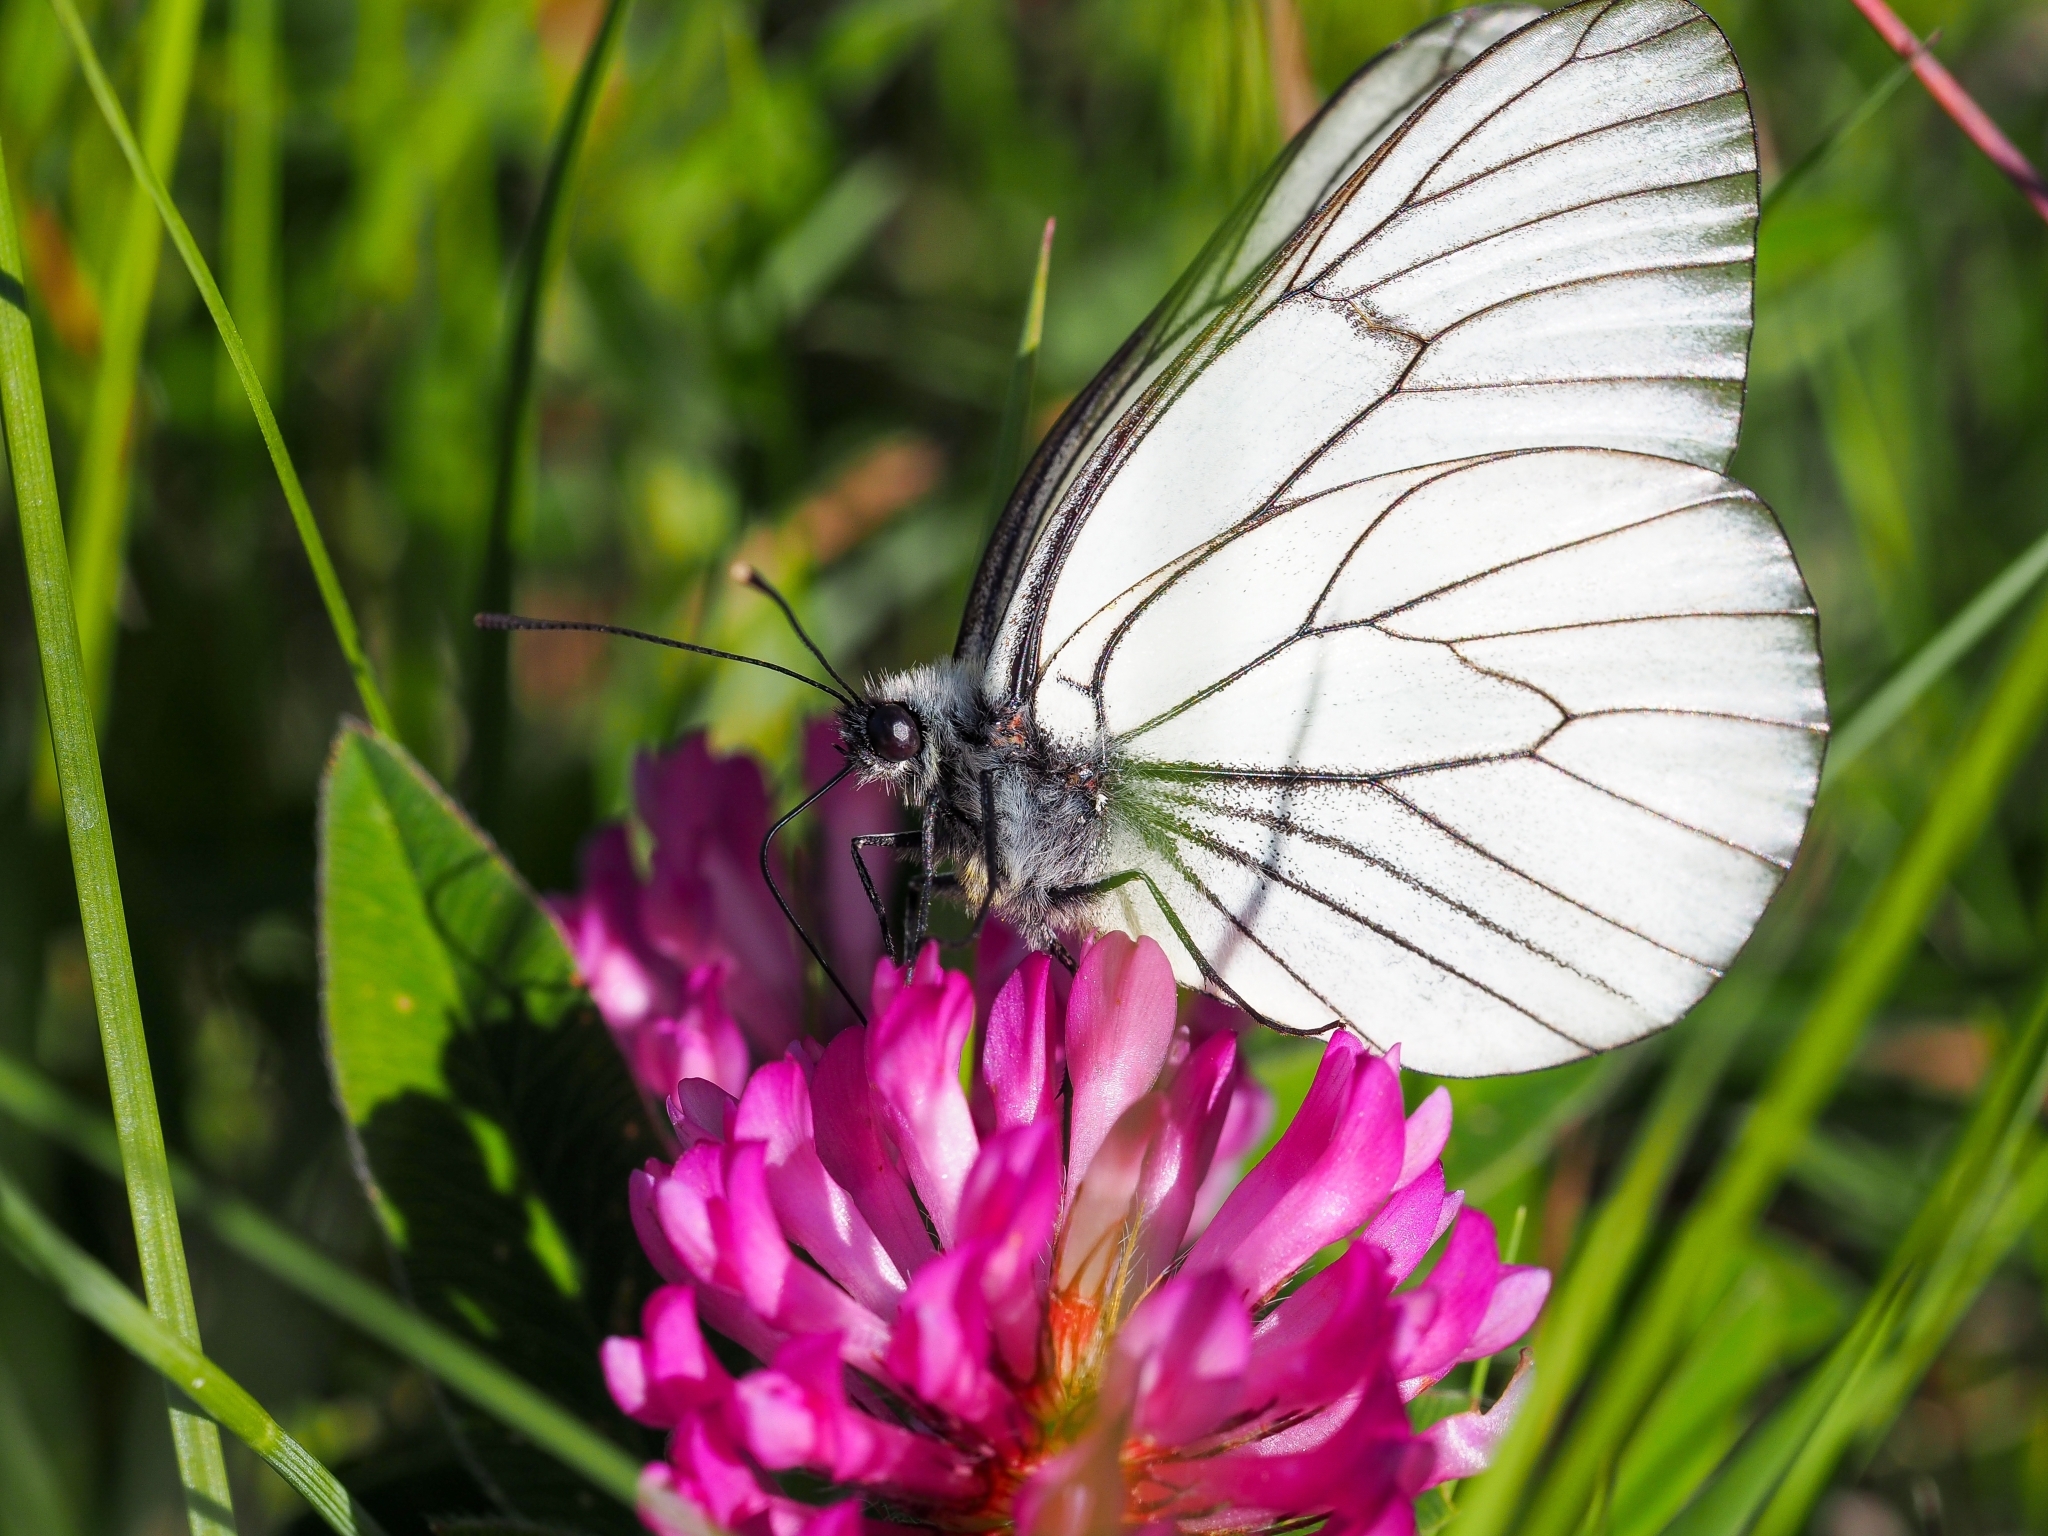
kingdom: Animalia
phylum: Arthropoda
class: Insecta
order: Lepidoptera
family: Pieridae
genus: Aporia
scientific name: Aporia crataegi
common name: Black-veined white
